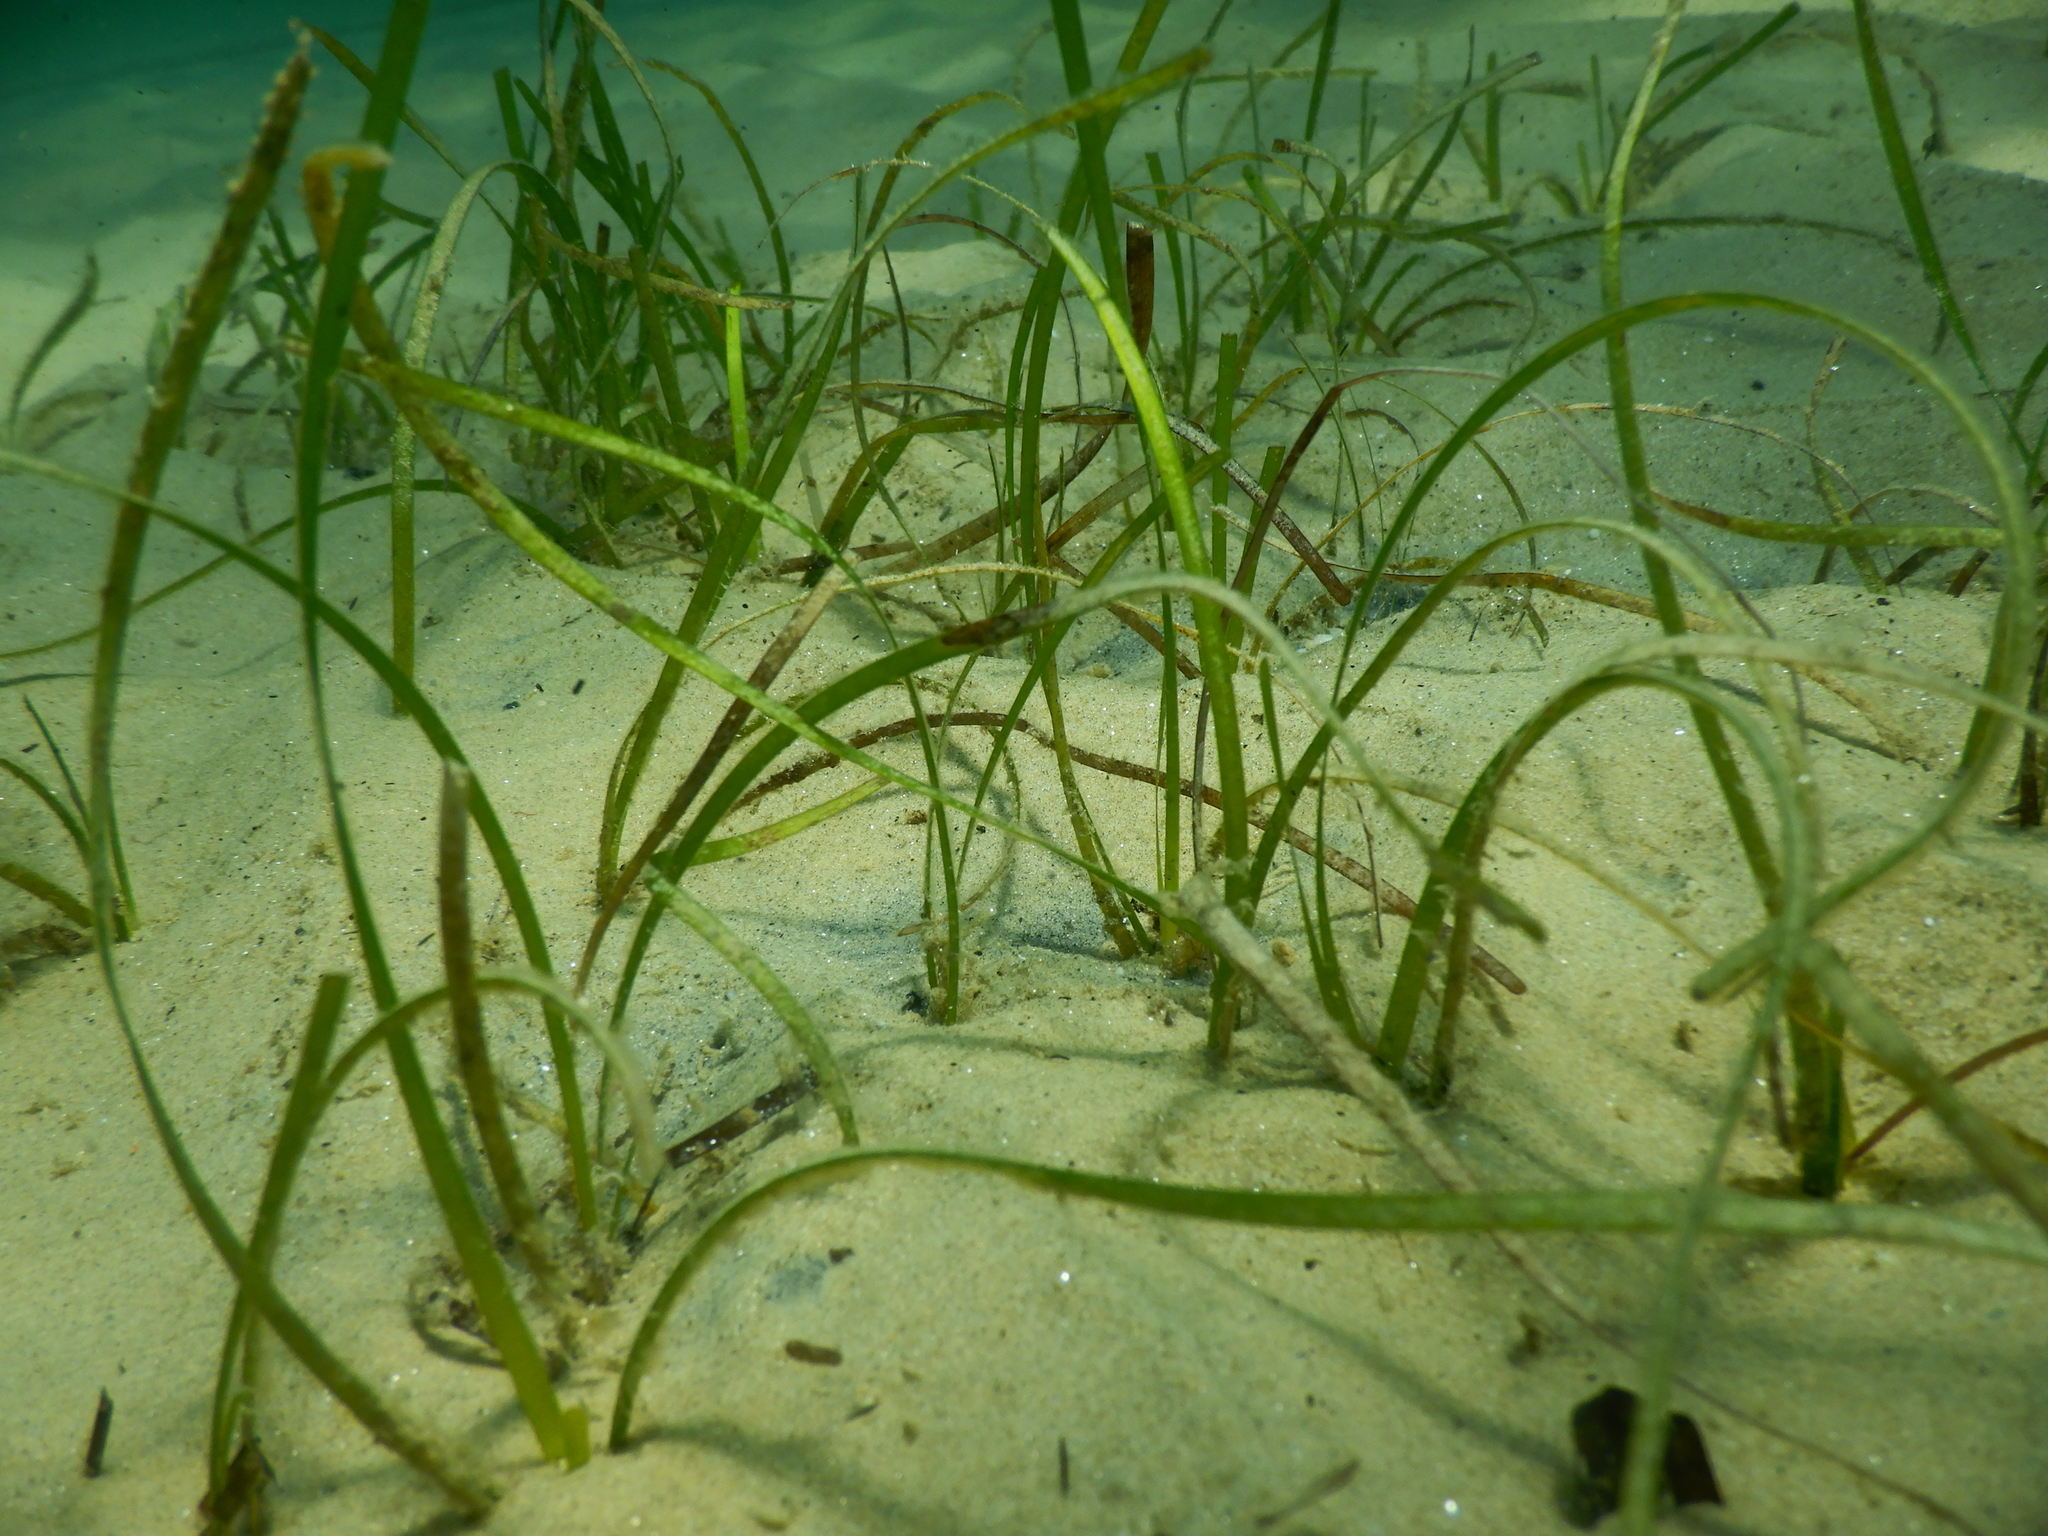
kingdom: Plantae
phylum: Tracheophyta
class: Liliopsida
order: Alismatales
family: Cymodoceaceae
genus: Cymodocea
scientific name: Cymodocea nodosa
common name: Slender seagrass
